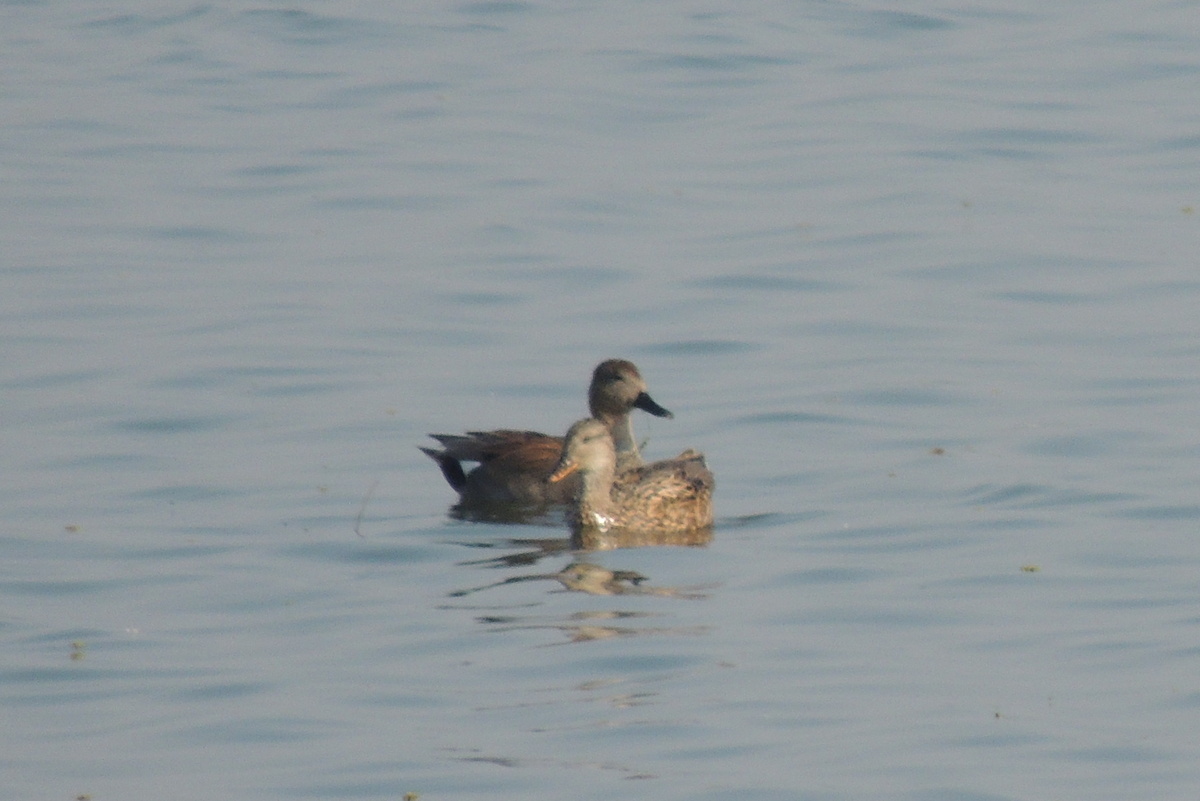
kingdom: Animalia
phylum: Chordata
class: Aves
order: Anseriformes
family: Anatidae
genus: Mareca
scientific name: Mareca strepera
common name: Gadwall
